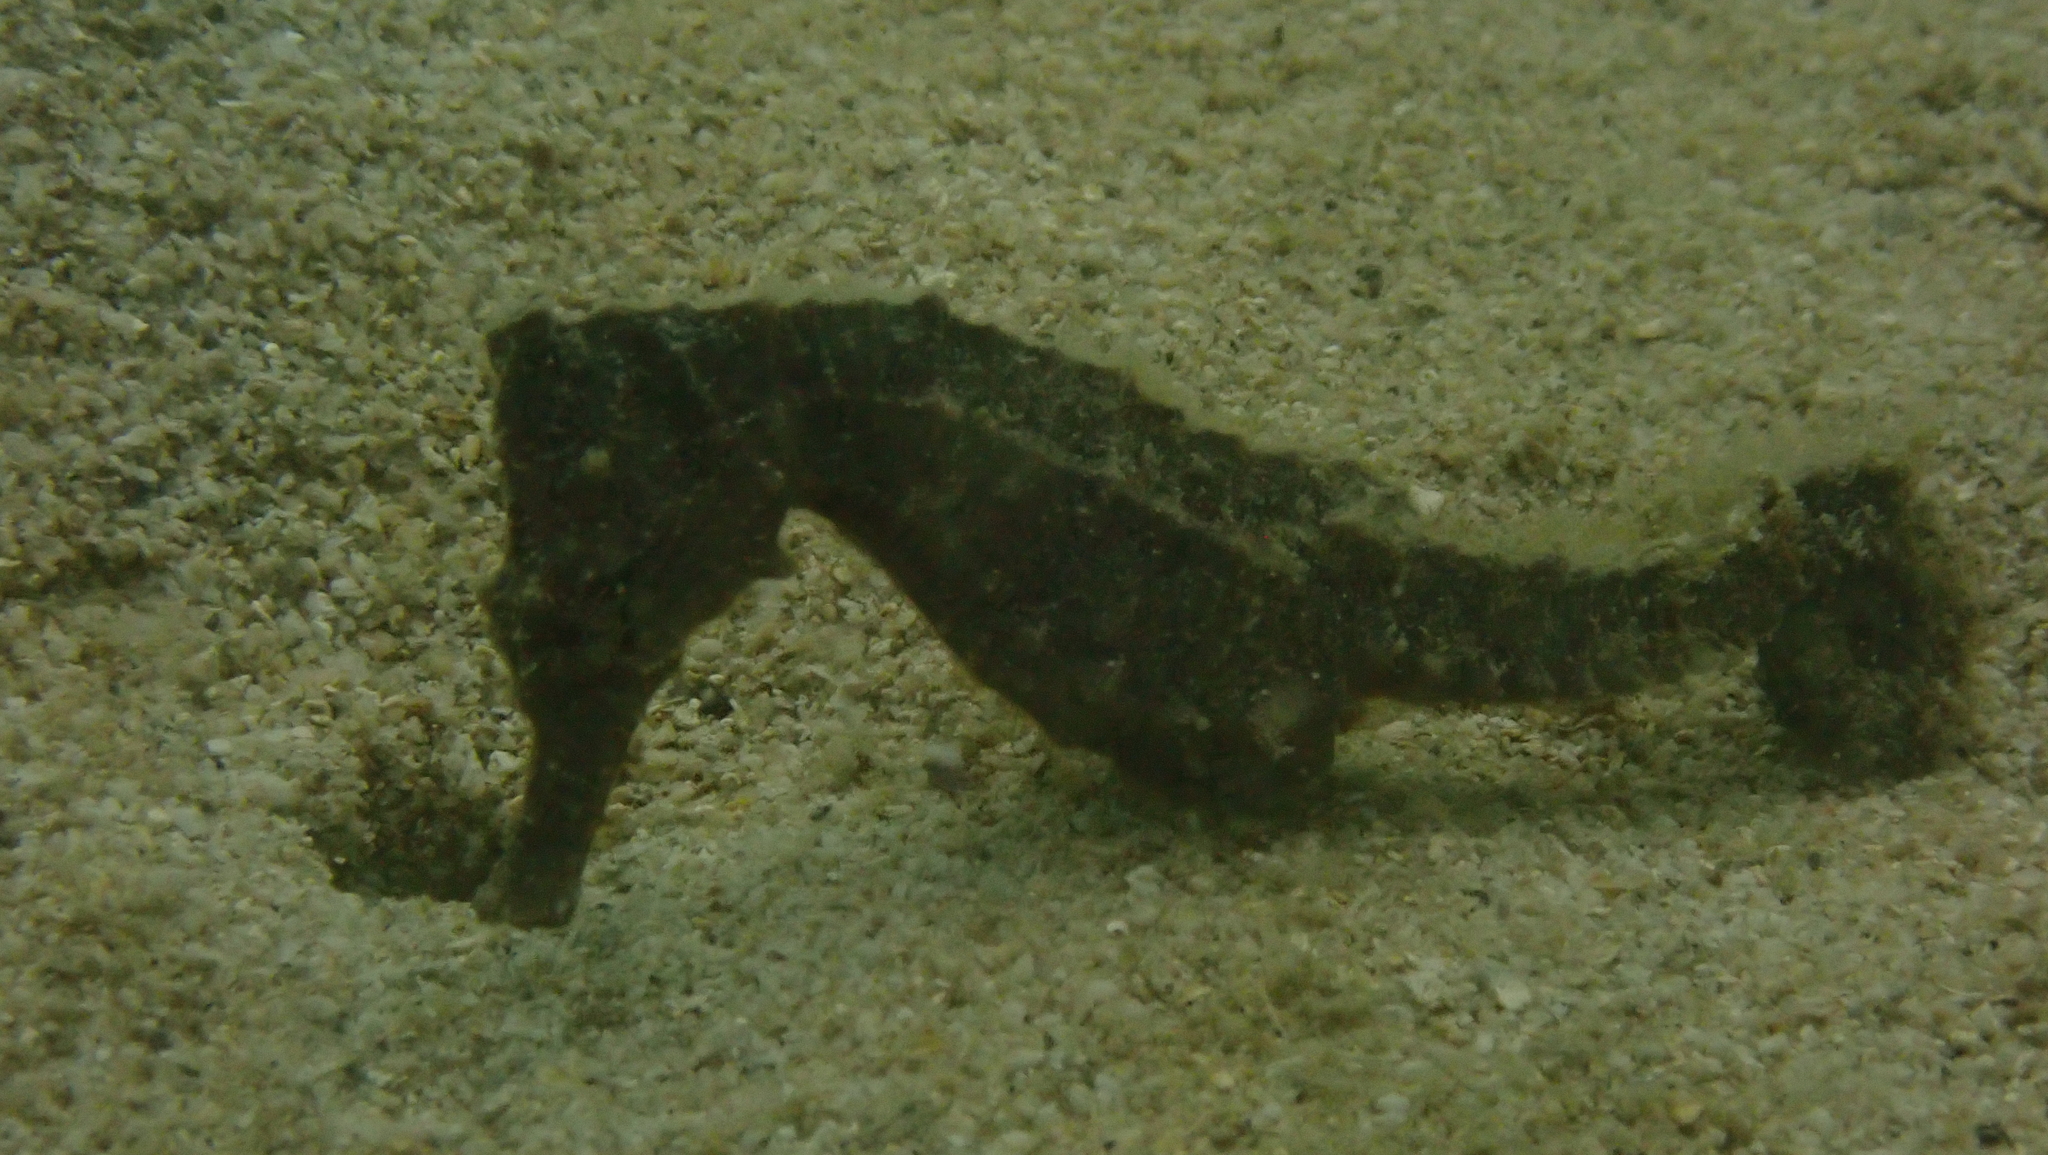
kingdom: Animalia
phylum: Chordata
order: Syngnathiformes
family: Syngnathidae
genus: Hippocampus
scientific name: Hippocampus kuda
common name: Spotted seahorse
